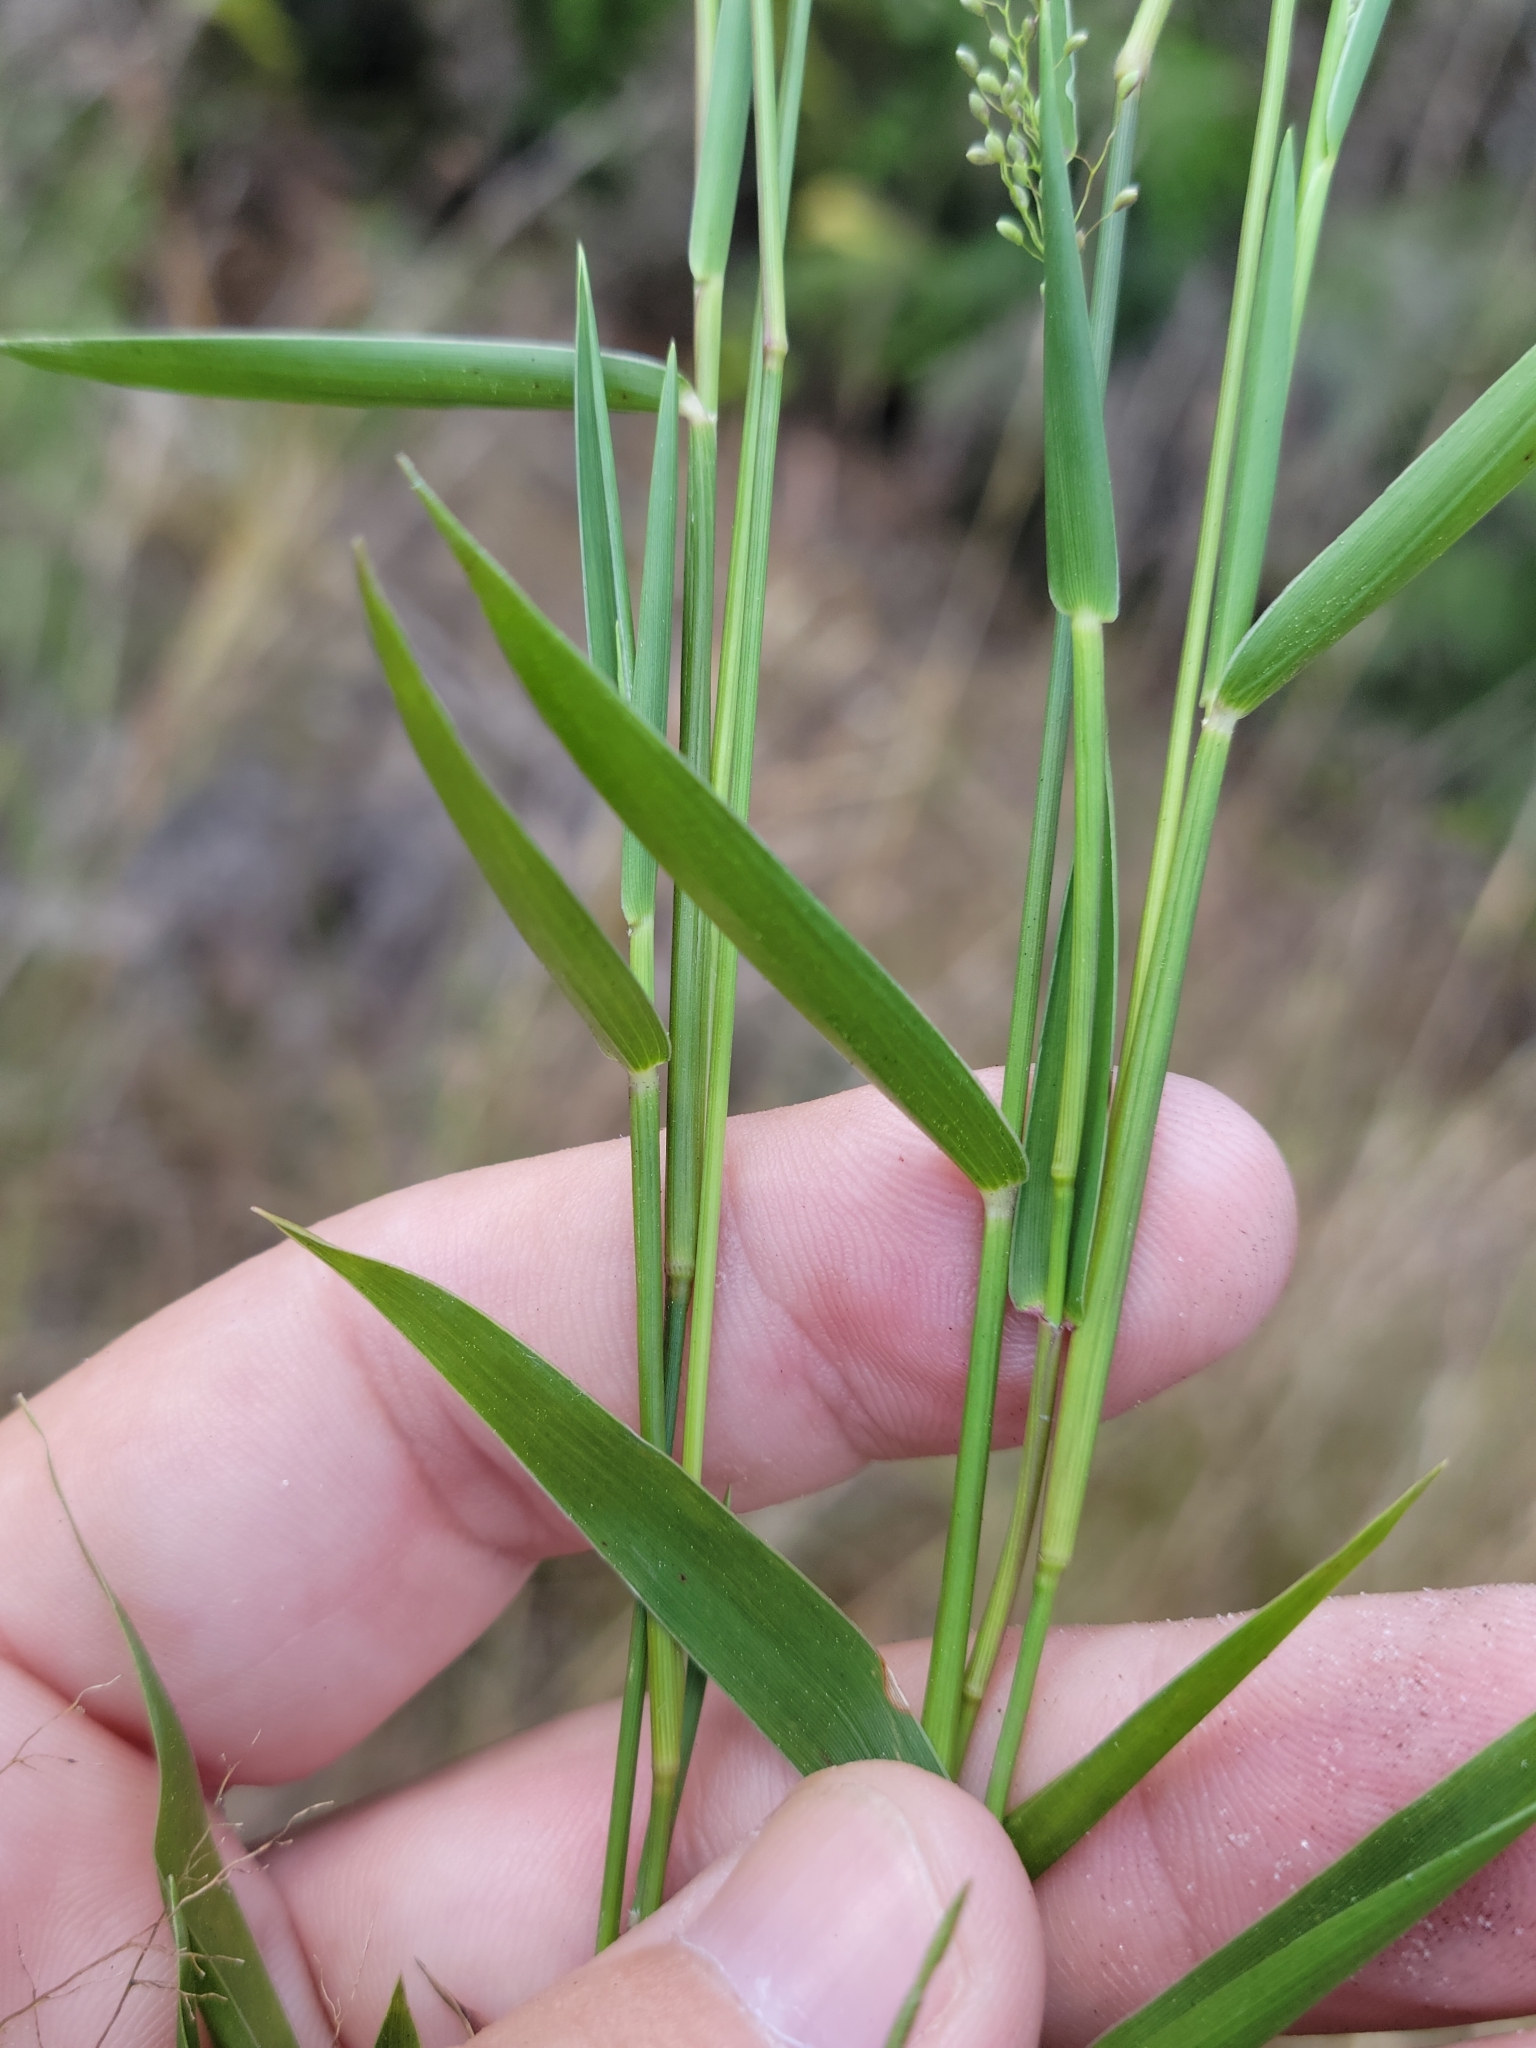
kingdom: Plantae
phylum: Tracheophyta
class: Liliopsida
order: Poales
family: Poaceae
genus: Dichanthelium
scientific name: Dichanthelium tenue
